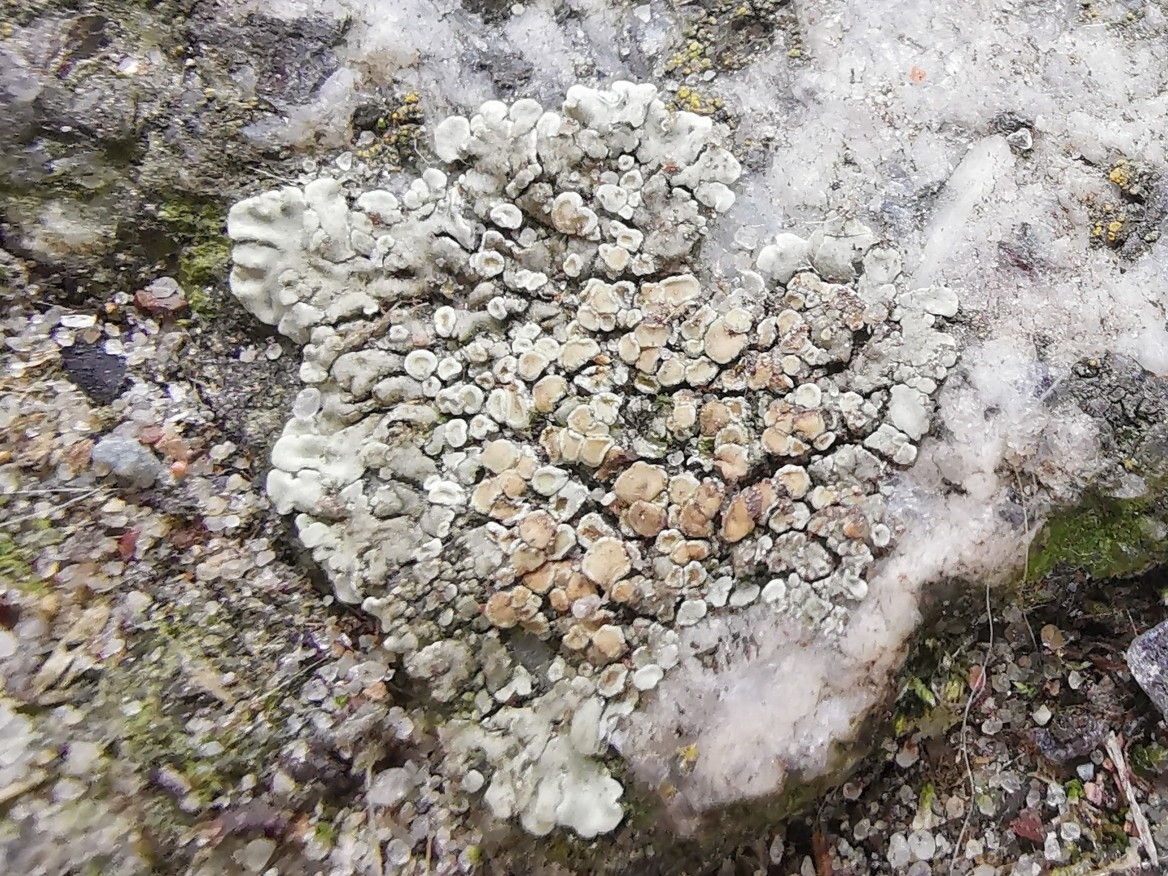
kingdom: Fungi
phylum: Ascomycota
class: Lecanoromycetes
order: Lecanorales
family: Lecanoraceae
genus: Protoparmeliopsis
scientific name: Protoparmeliopsis muralis
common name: Stonewall rim lichen
